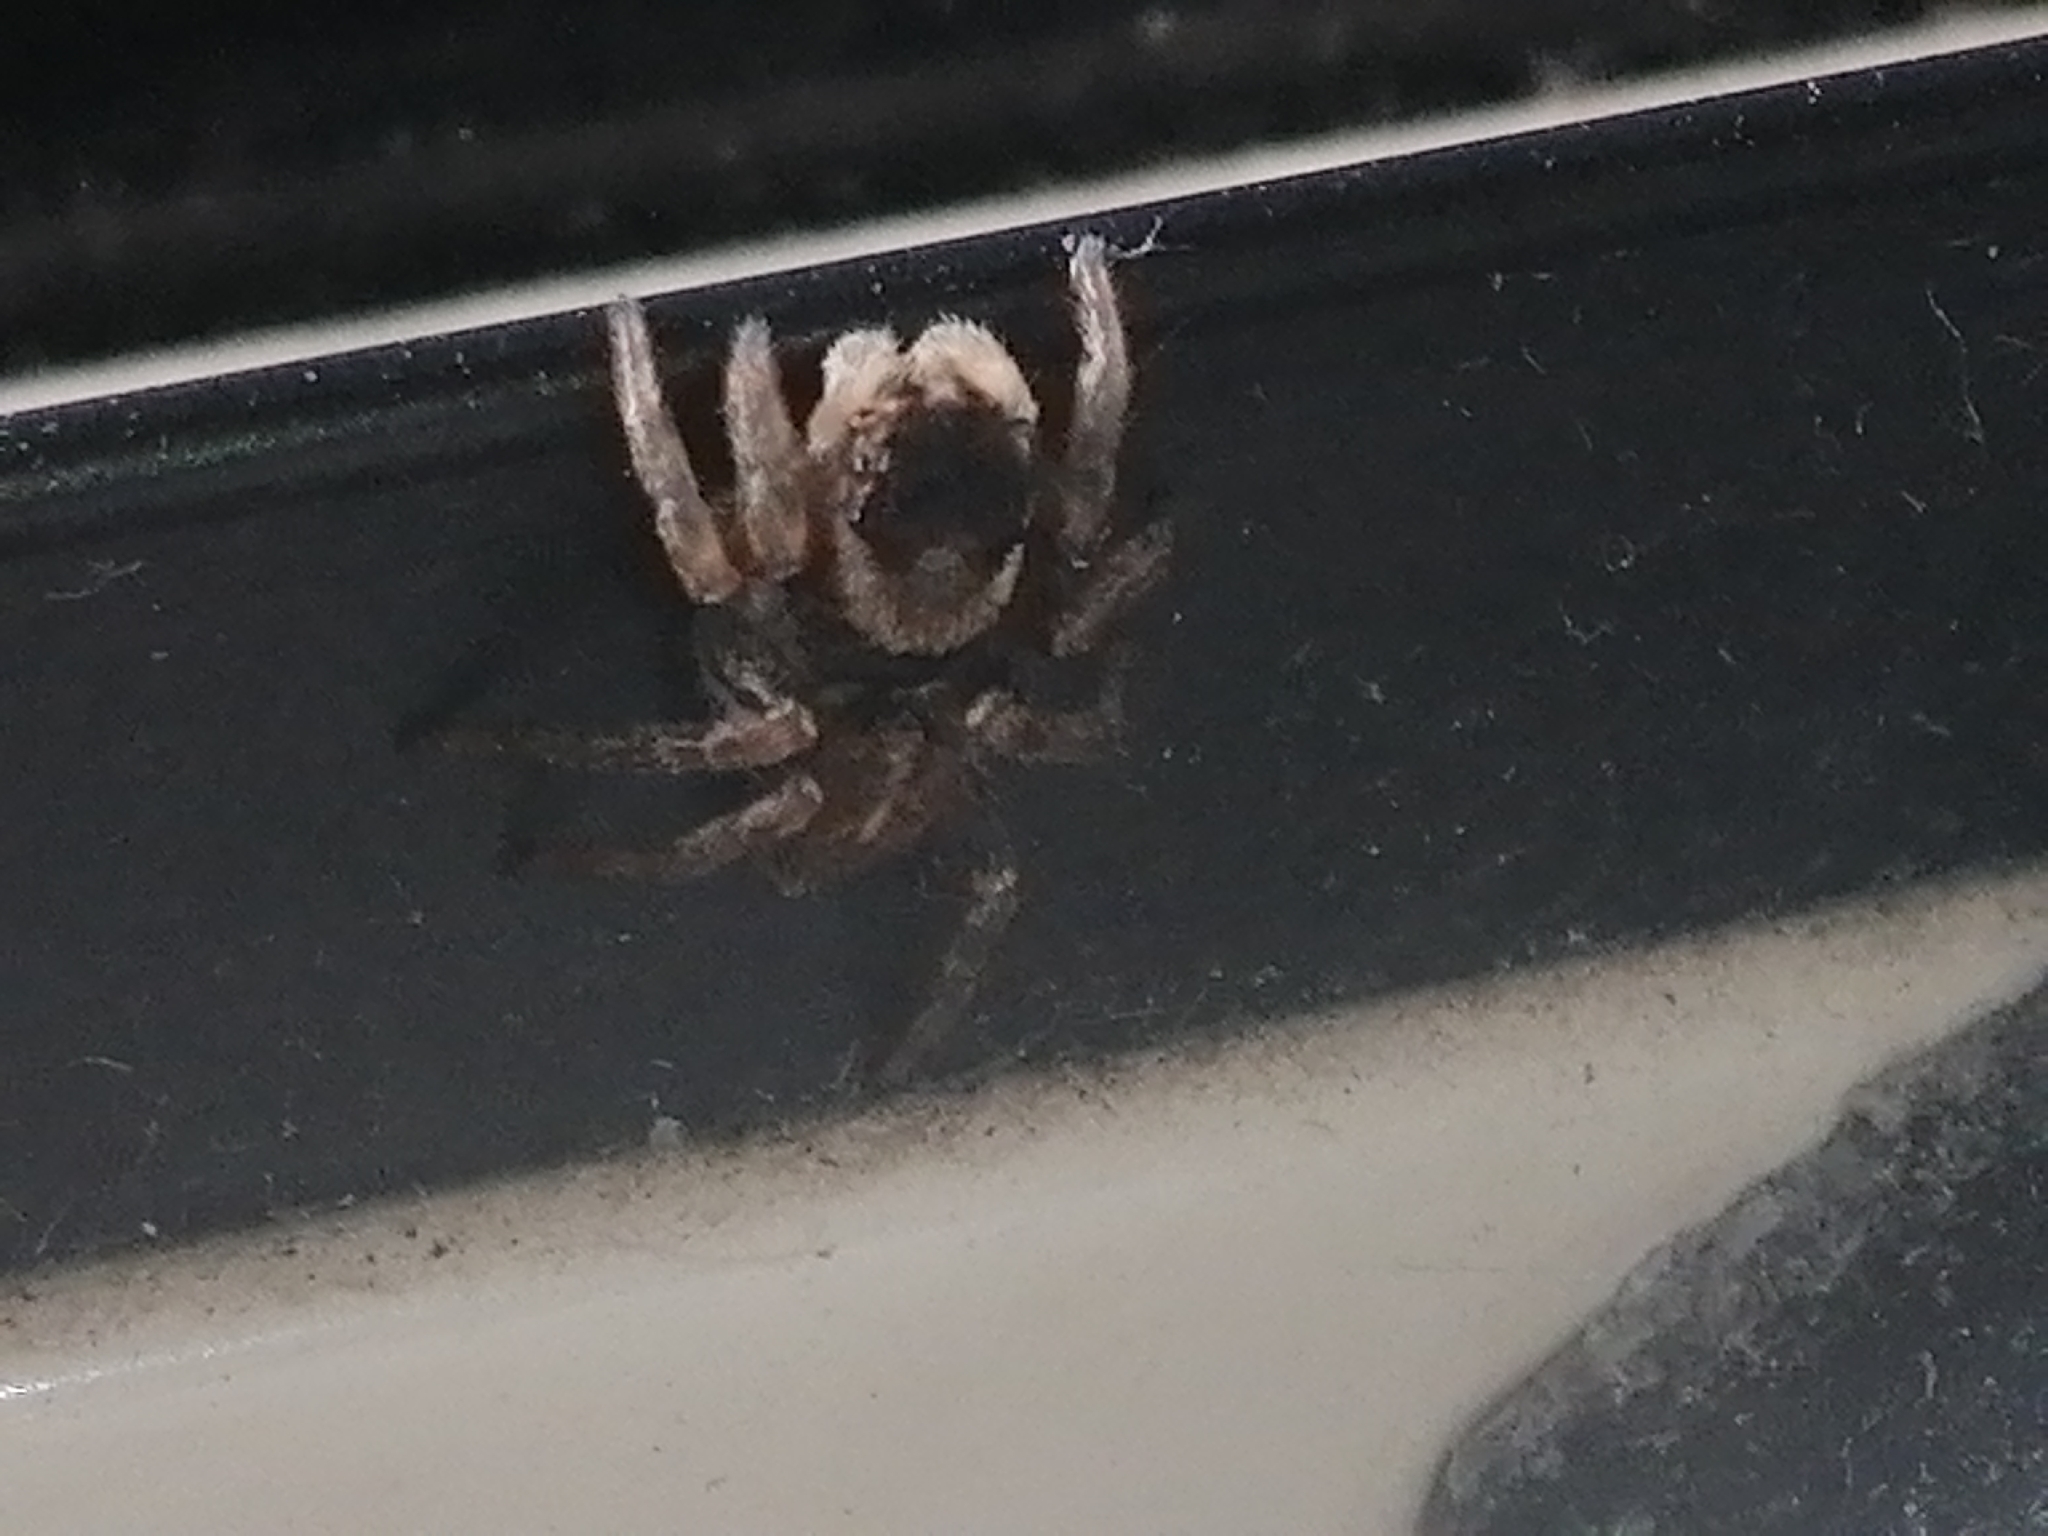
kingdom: Animalia
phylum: Arthropoda
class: Arachnida
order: Araneae
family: Salticidae
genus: Maratus
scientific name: Maratus griseus
